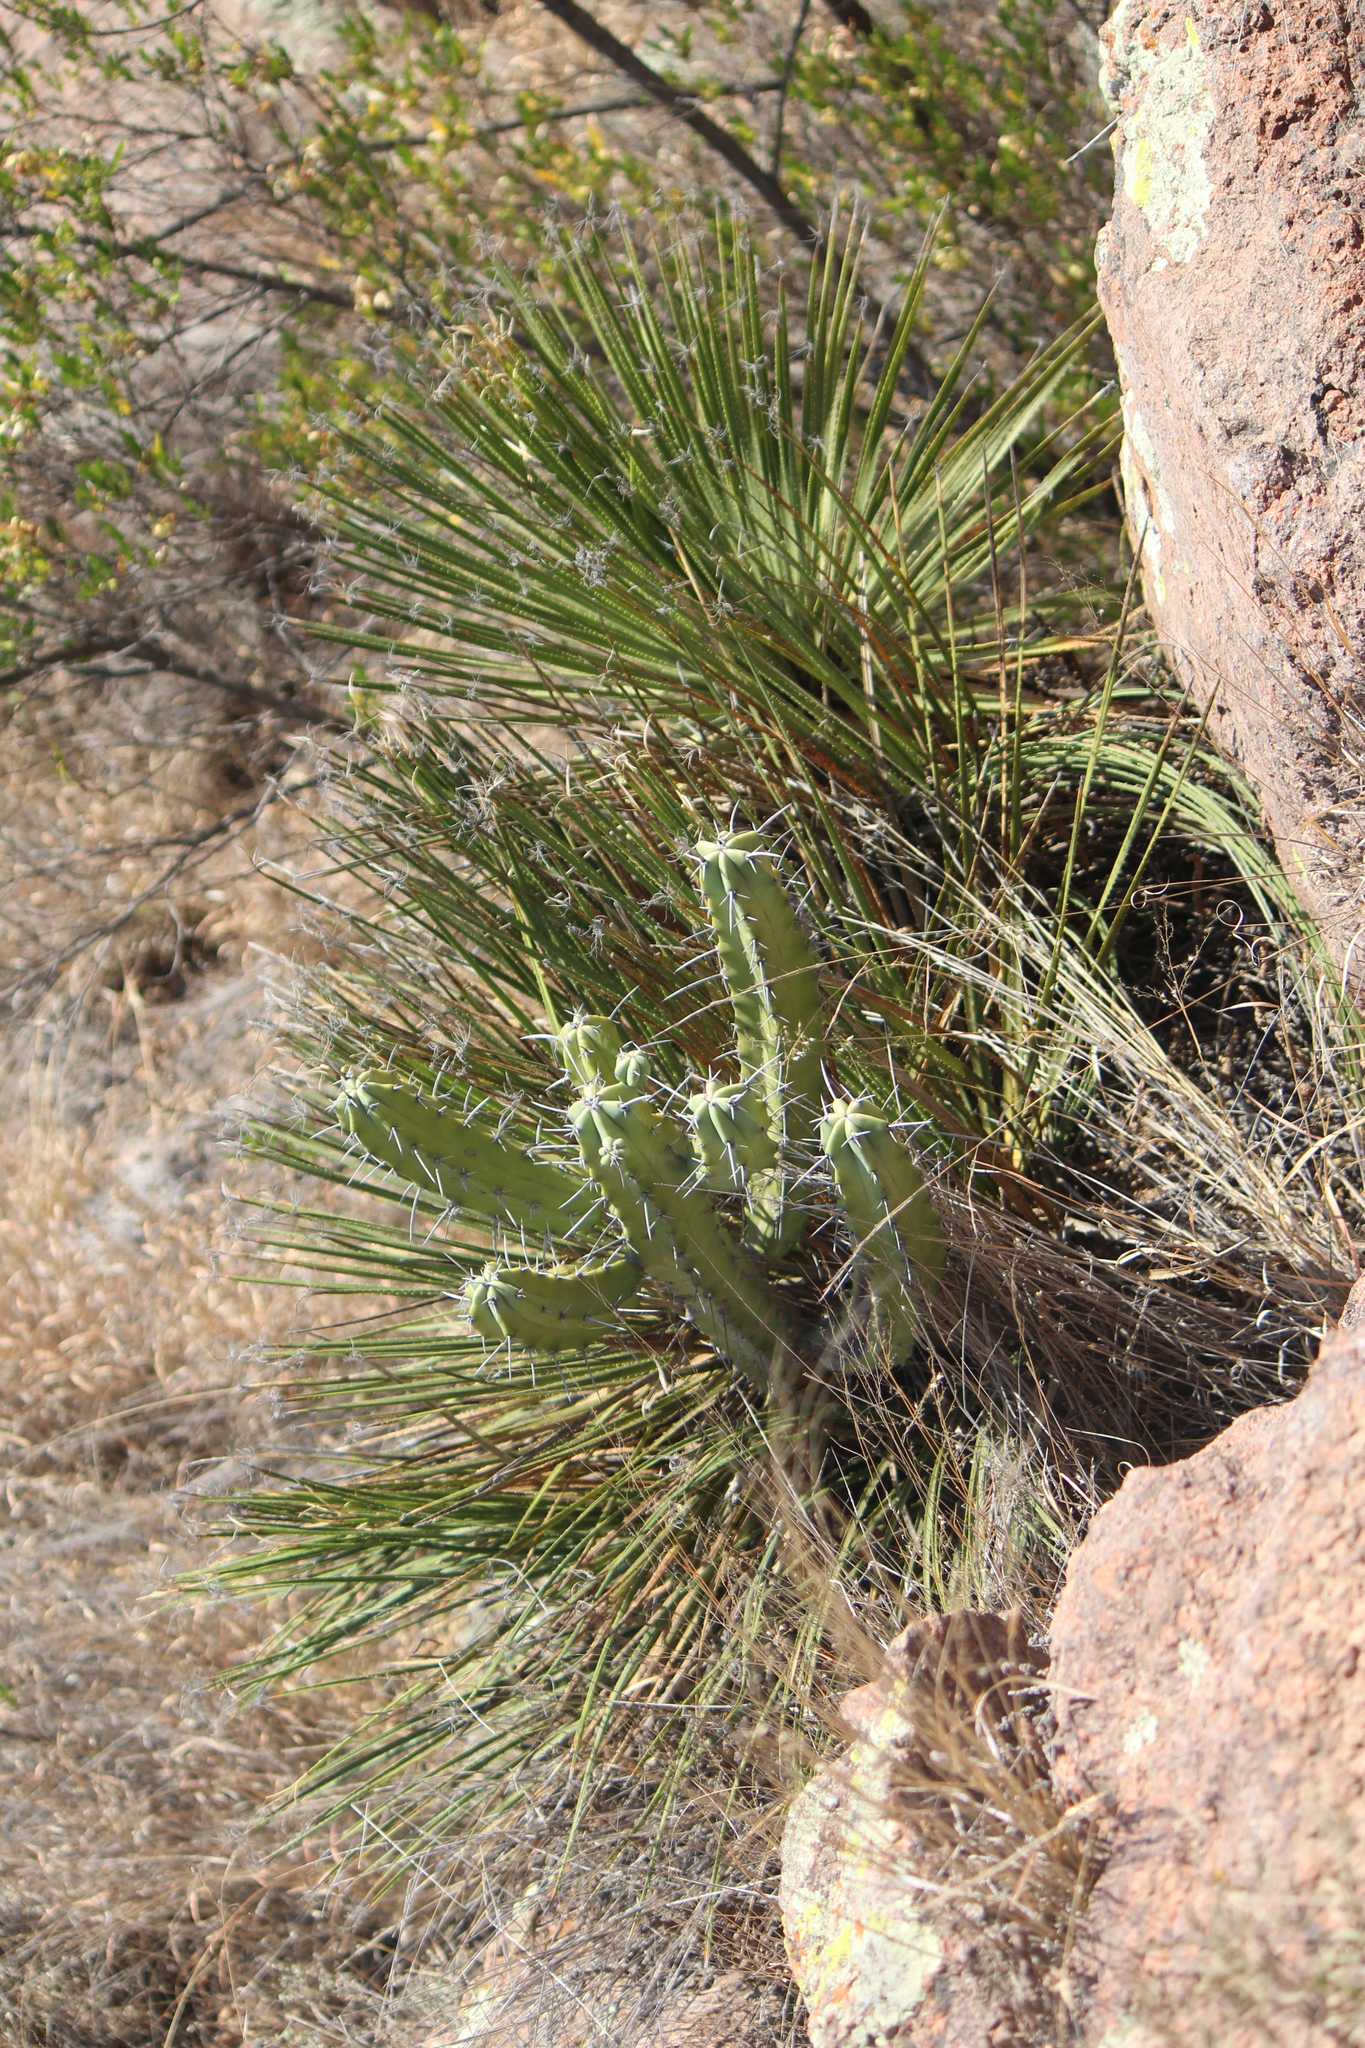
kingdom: Plantae
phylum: Tracheophyta
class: Liliopsida
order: Asparagales
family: Asparagaceae
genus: Dasylirion
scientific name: Dasylirion acrotrichum
